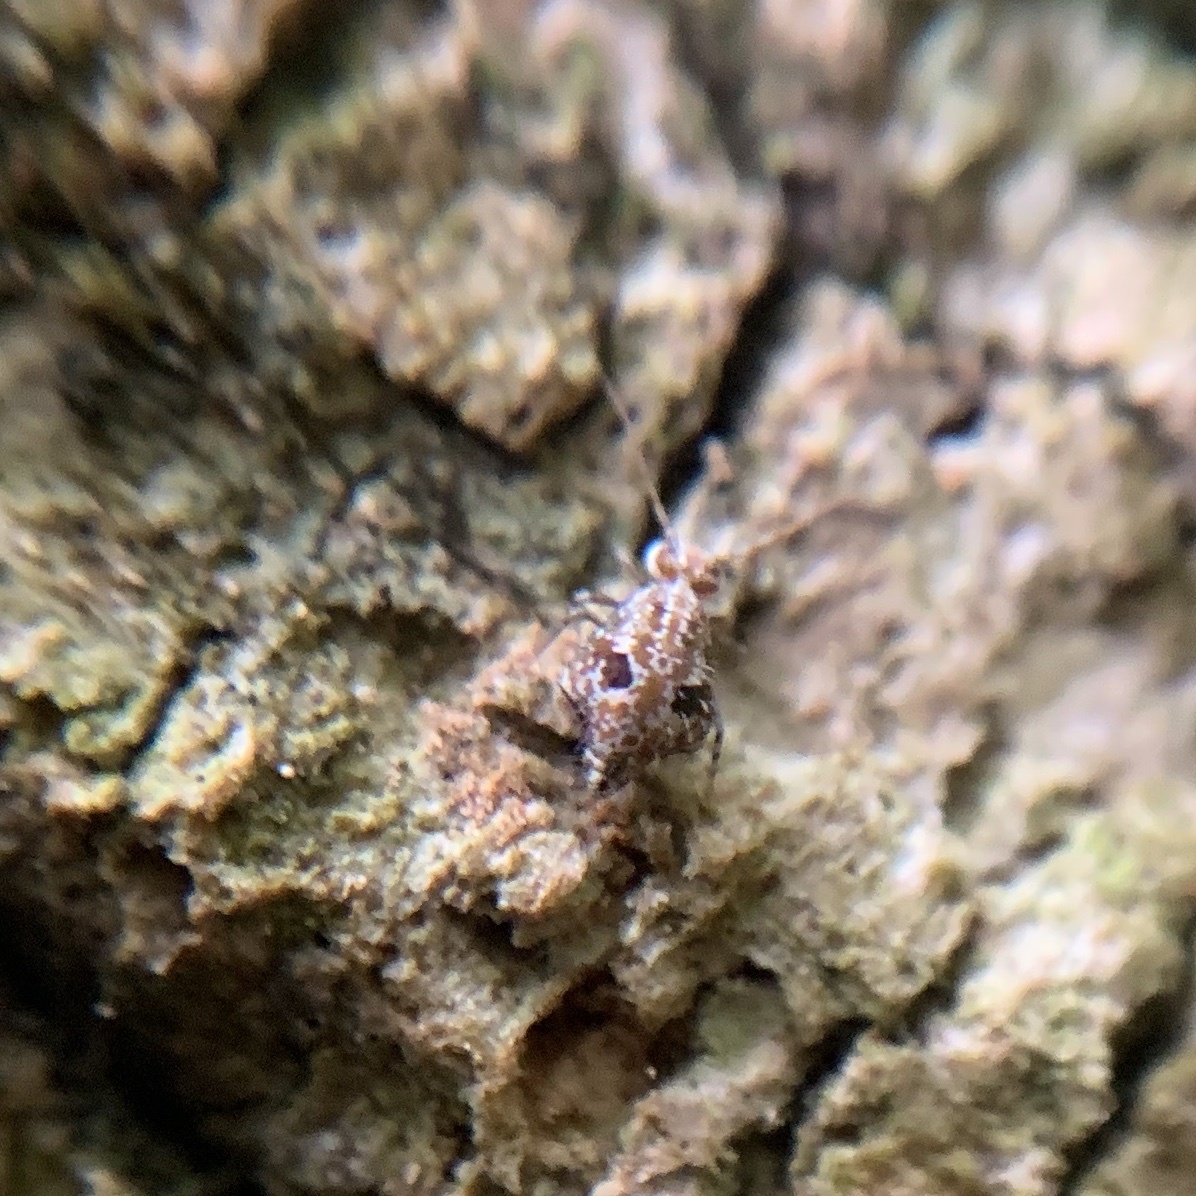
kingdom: Animalia
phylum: Arthropoda
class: Collembola
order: Symphypleona
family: Sminthuridae
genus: Janusius
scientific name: Janusius sylvestris
